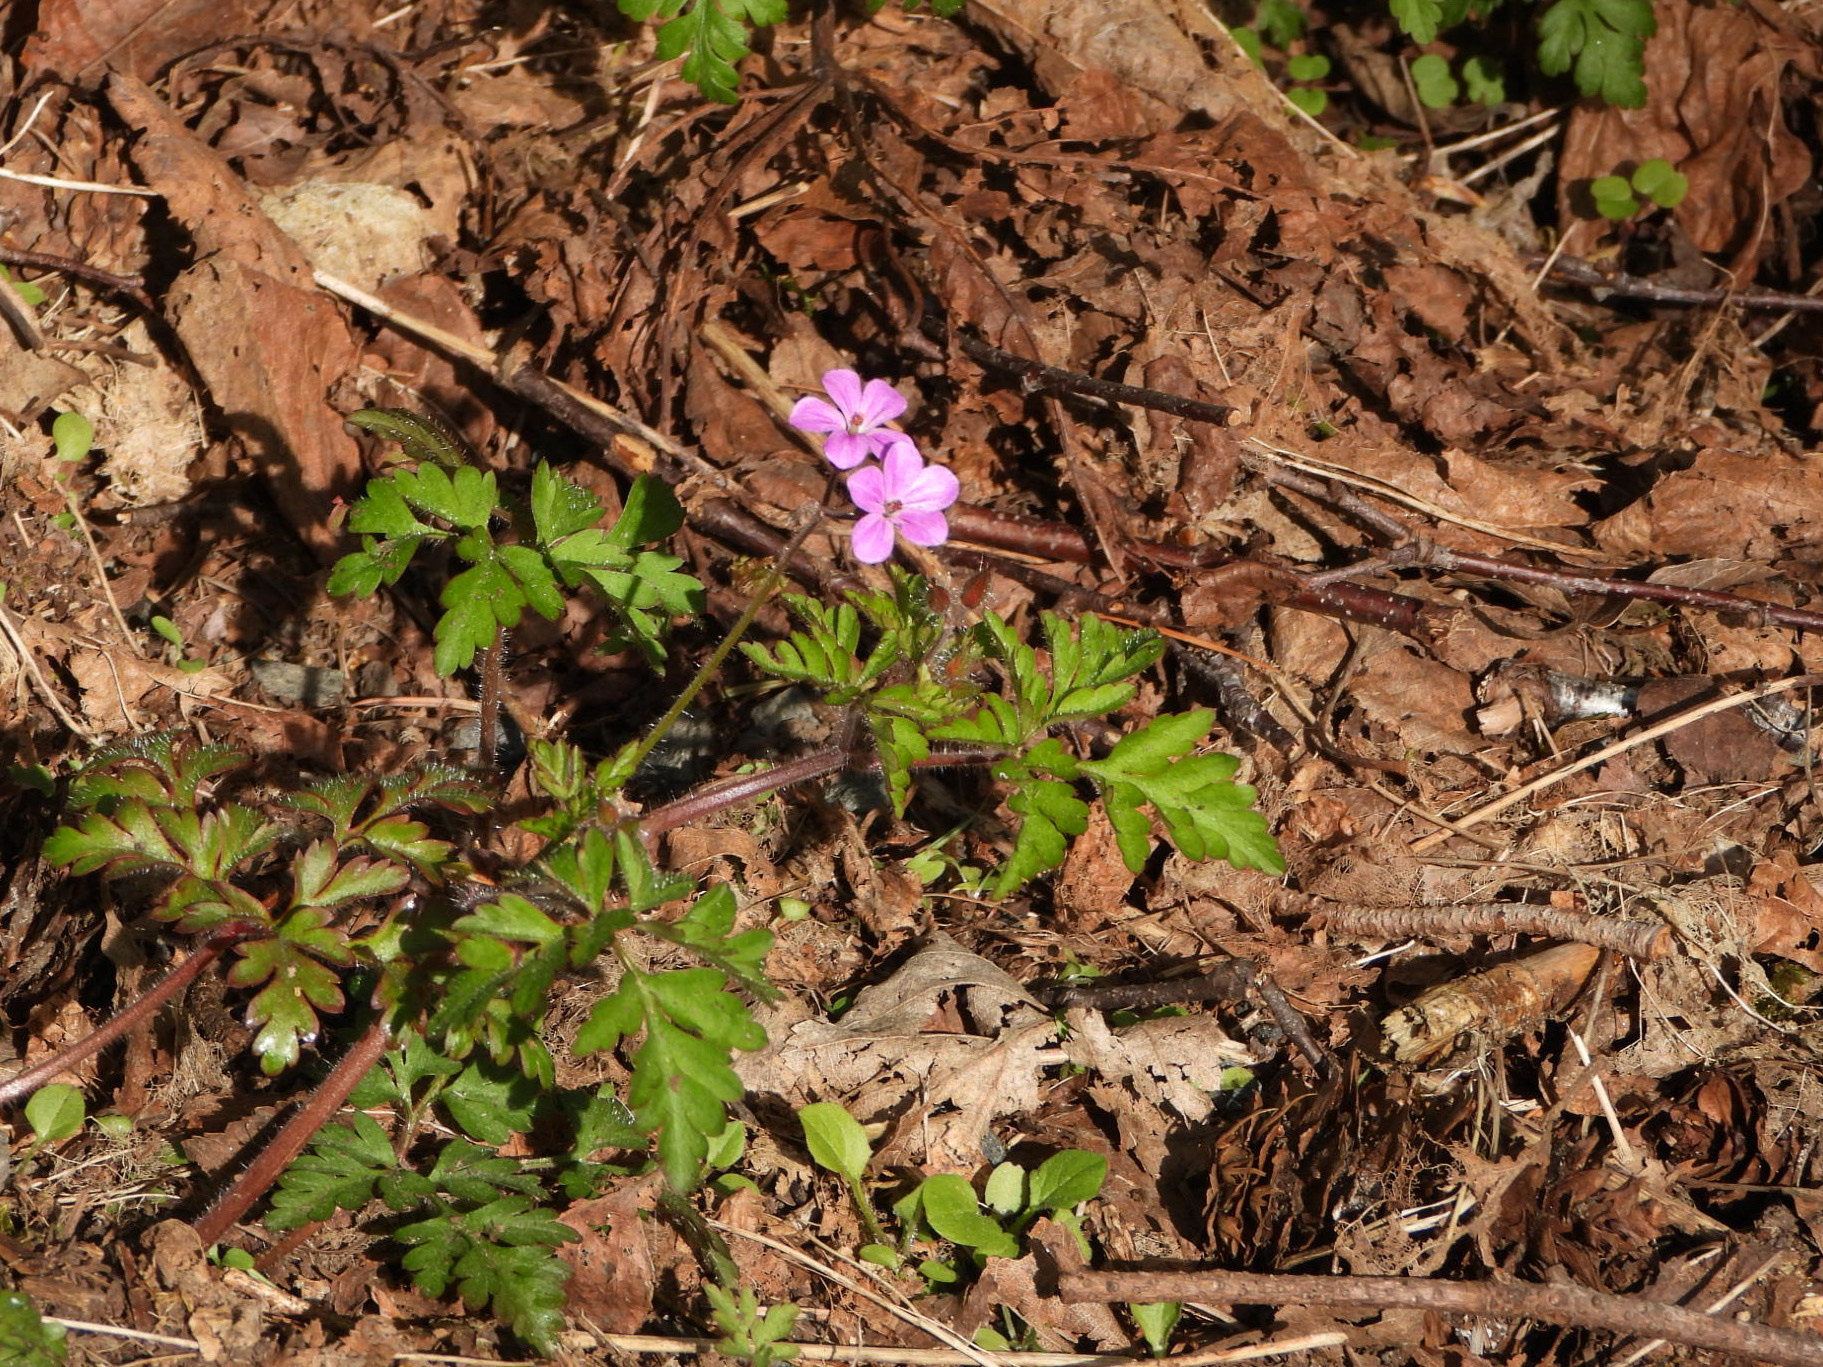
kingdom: Plantae
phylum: Tracheophyta
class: Magnoliopsida
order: Geraniales
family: Geraniaceae
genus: Geranium
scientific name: Geranium robertianum
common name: Herb-robert
